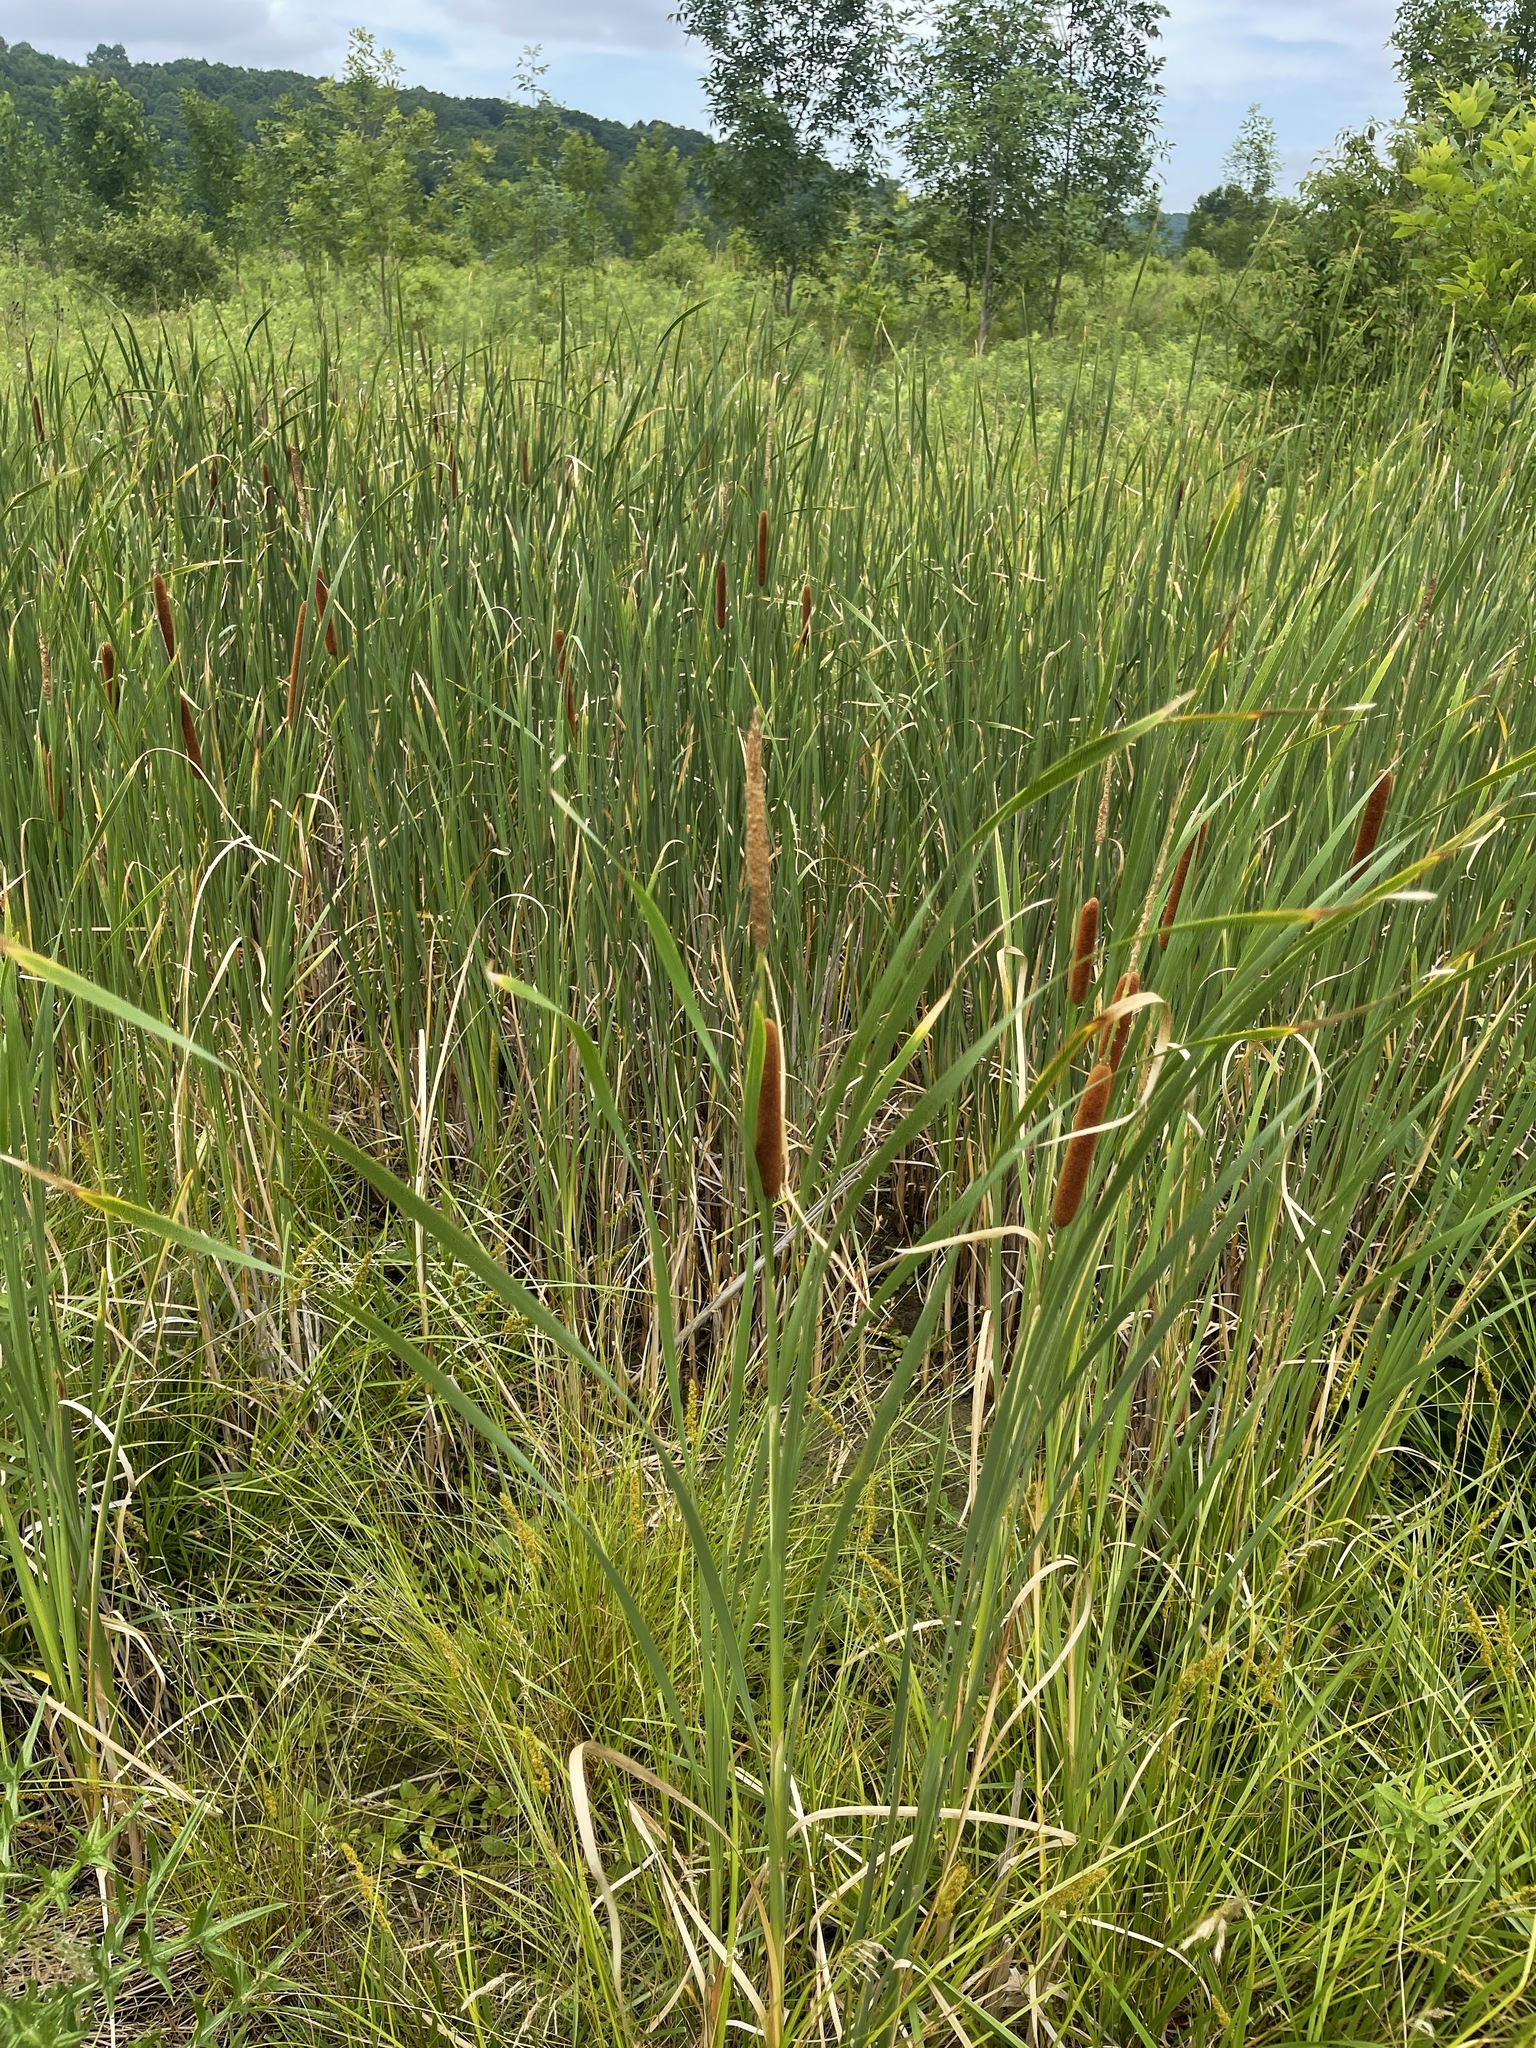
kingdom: Plantae
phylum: Tracheophyta
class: Liliopsida
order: Poales
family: Typhaceae
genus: Typha
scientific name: Typha angustifolia
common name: Lesser bulrush
